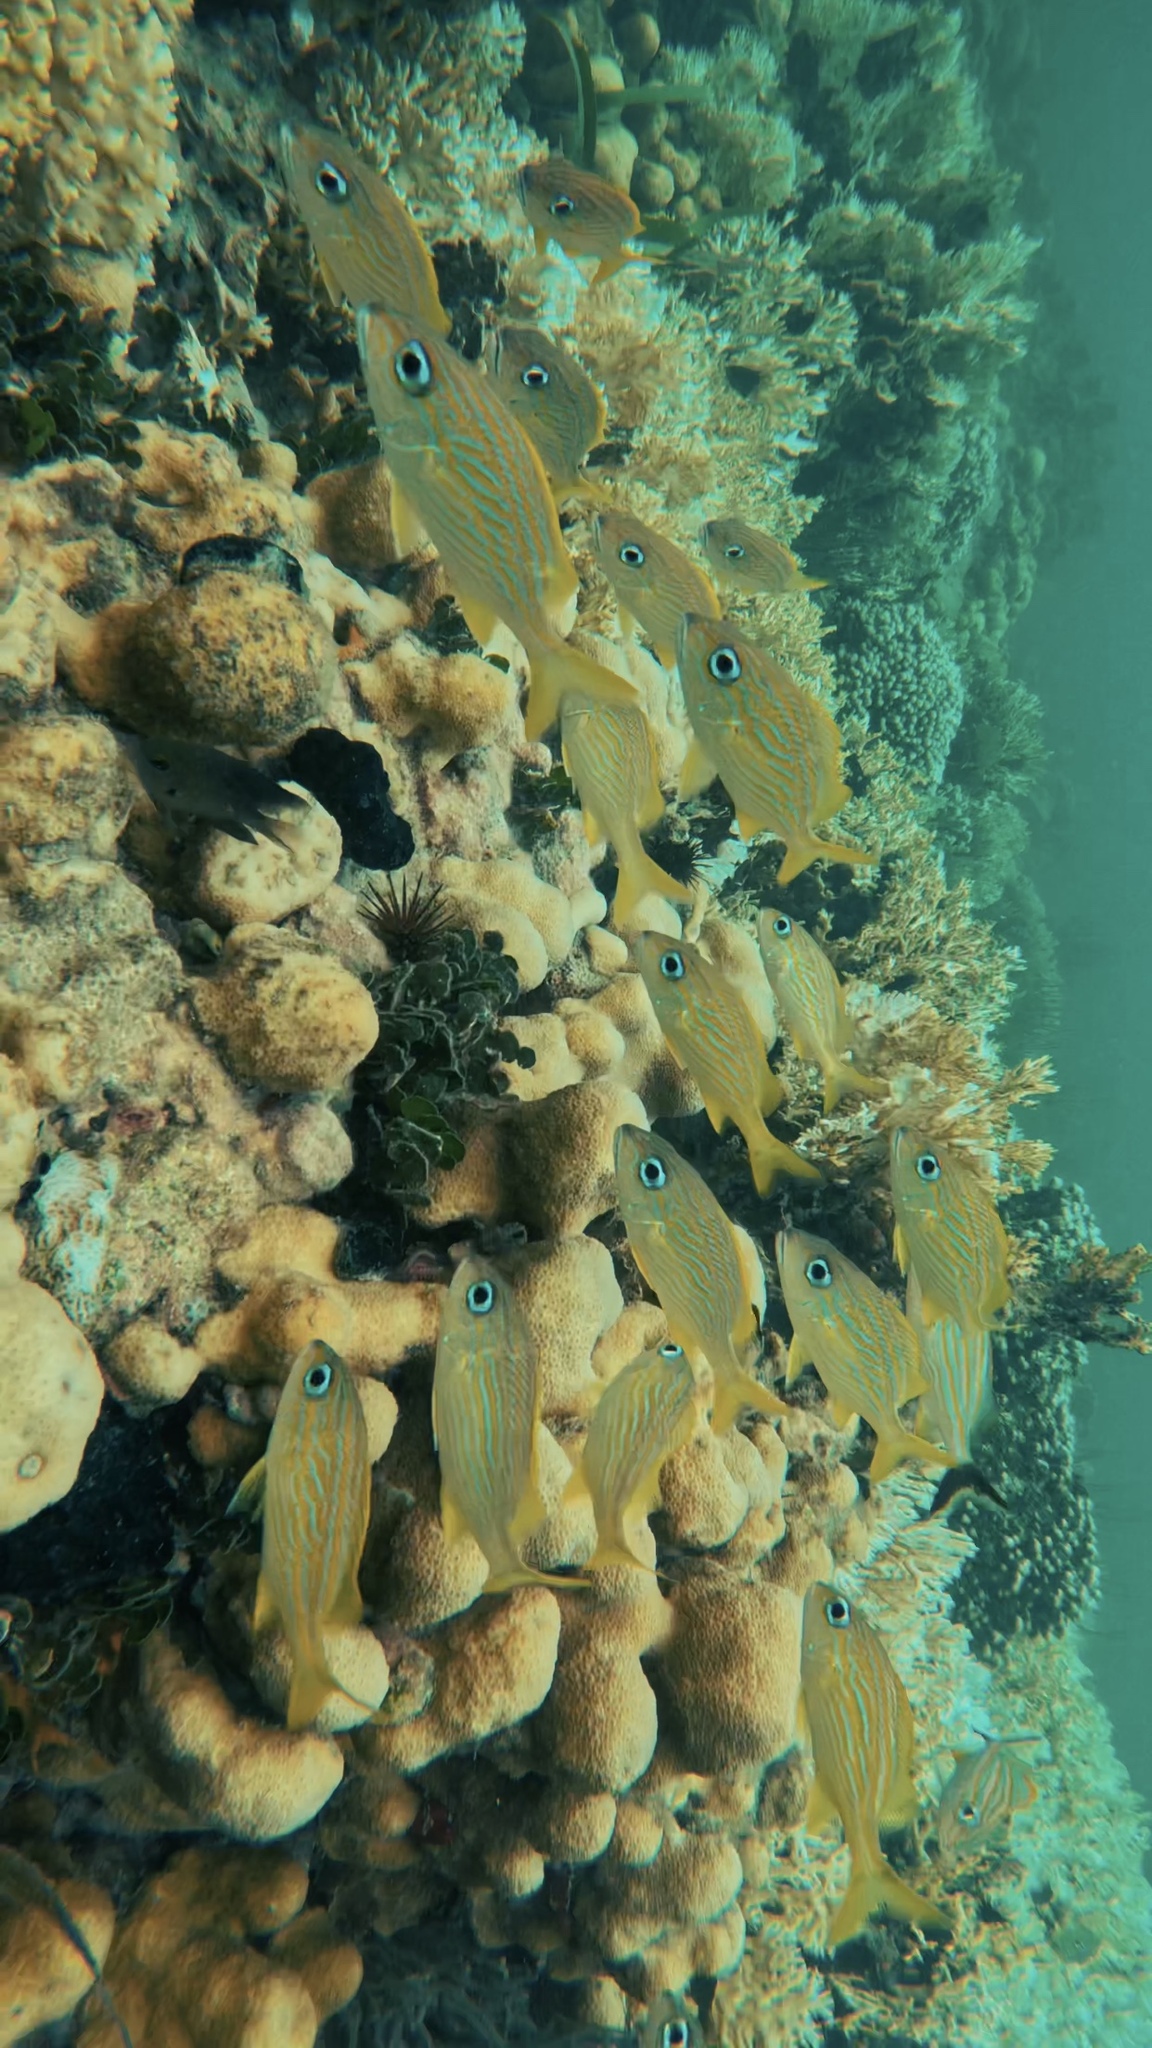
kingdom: Animalia
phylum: Chordata
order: Perciformes
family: Haemulidae
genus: Haemulon
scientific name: Haemulon flavolineatum
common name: French grunt
